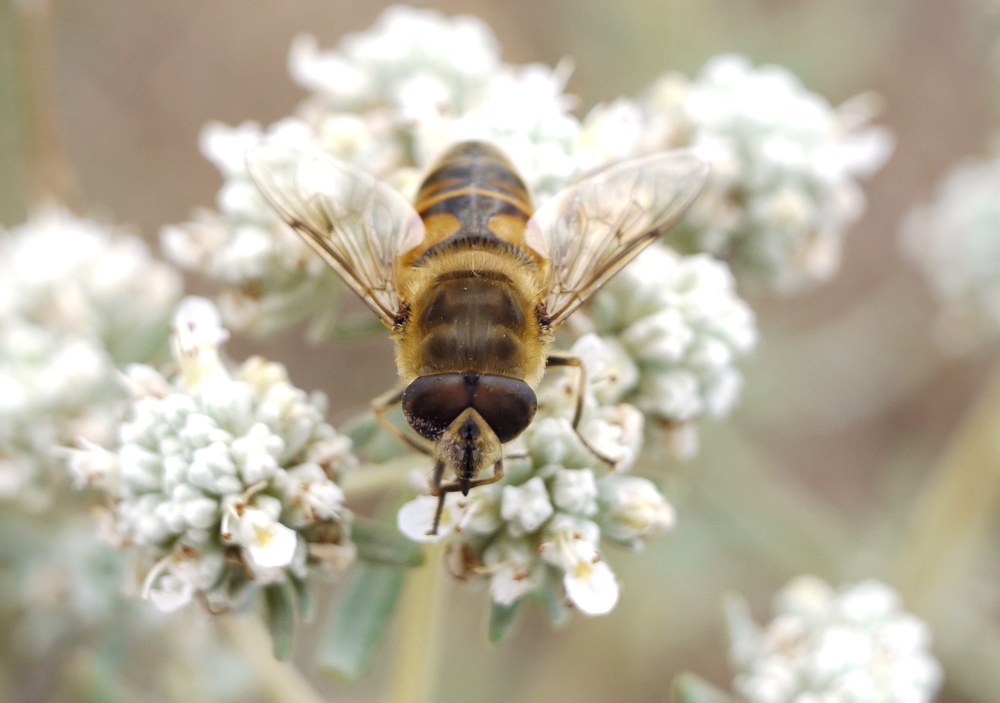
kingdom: Animalia
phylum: Arthropoda
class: Insecta
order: Diptera
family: Syrphidae
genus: Eristalis
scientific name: Eristalis tenax
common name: Drone fly
